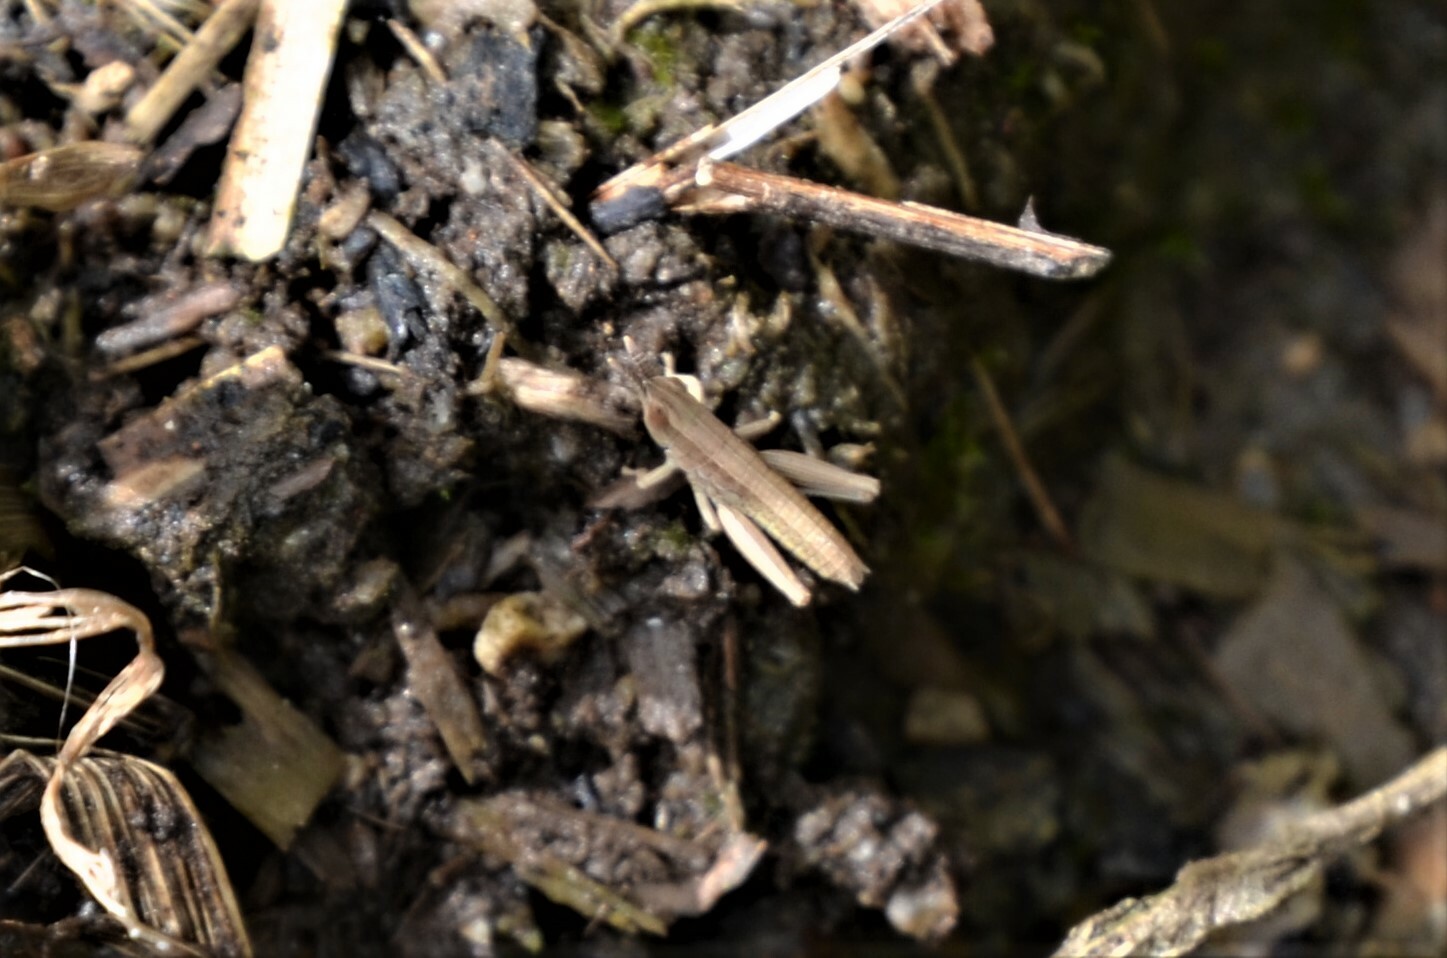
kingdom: Animalia
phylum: Arthropoda
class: Insecta
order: Orthoptera
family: Acrididae
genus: Euthystira
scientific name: Euthystira brachyptera
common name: Small gold grasshopper
